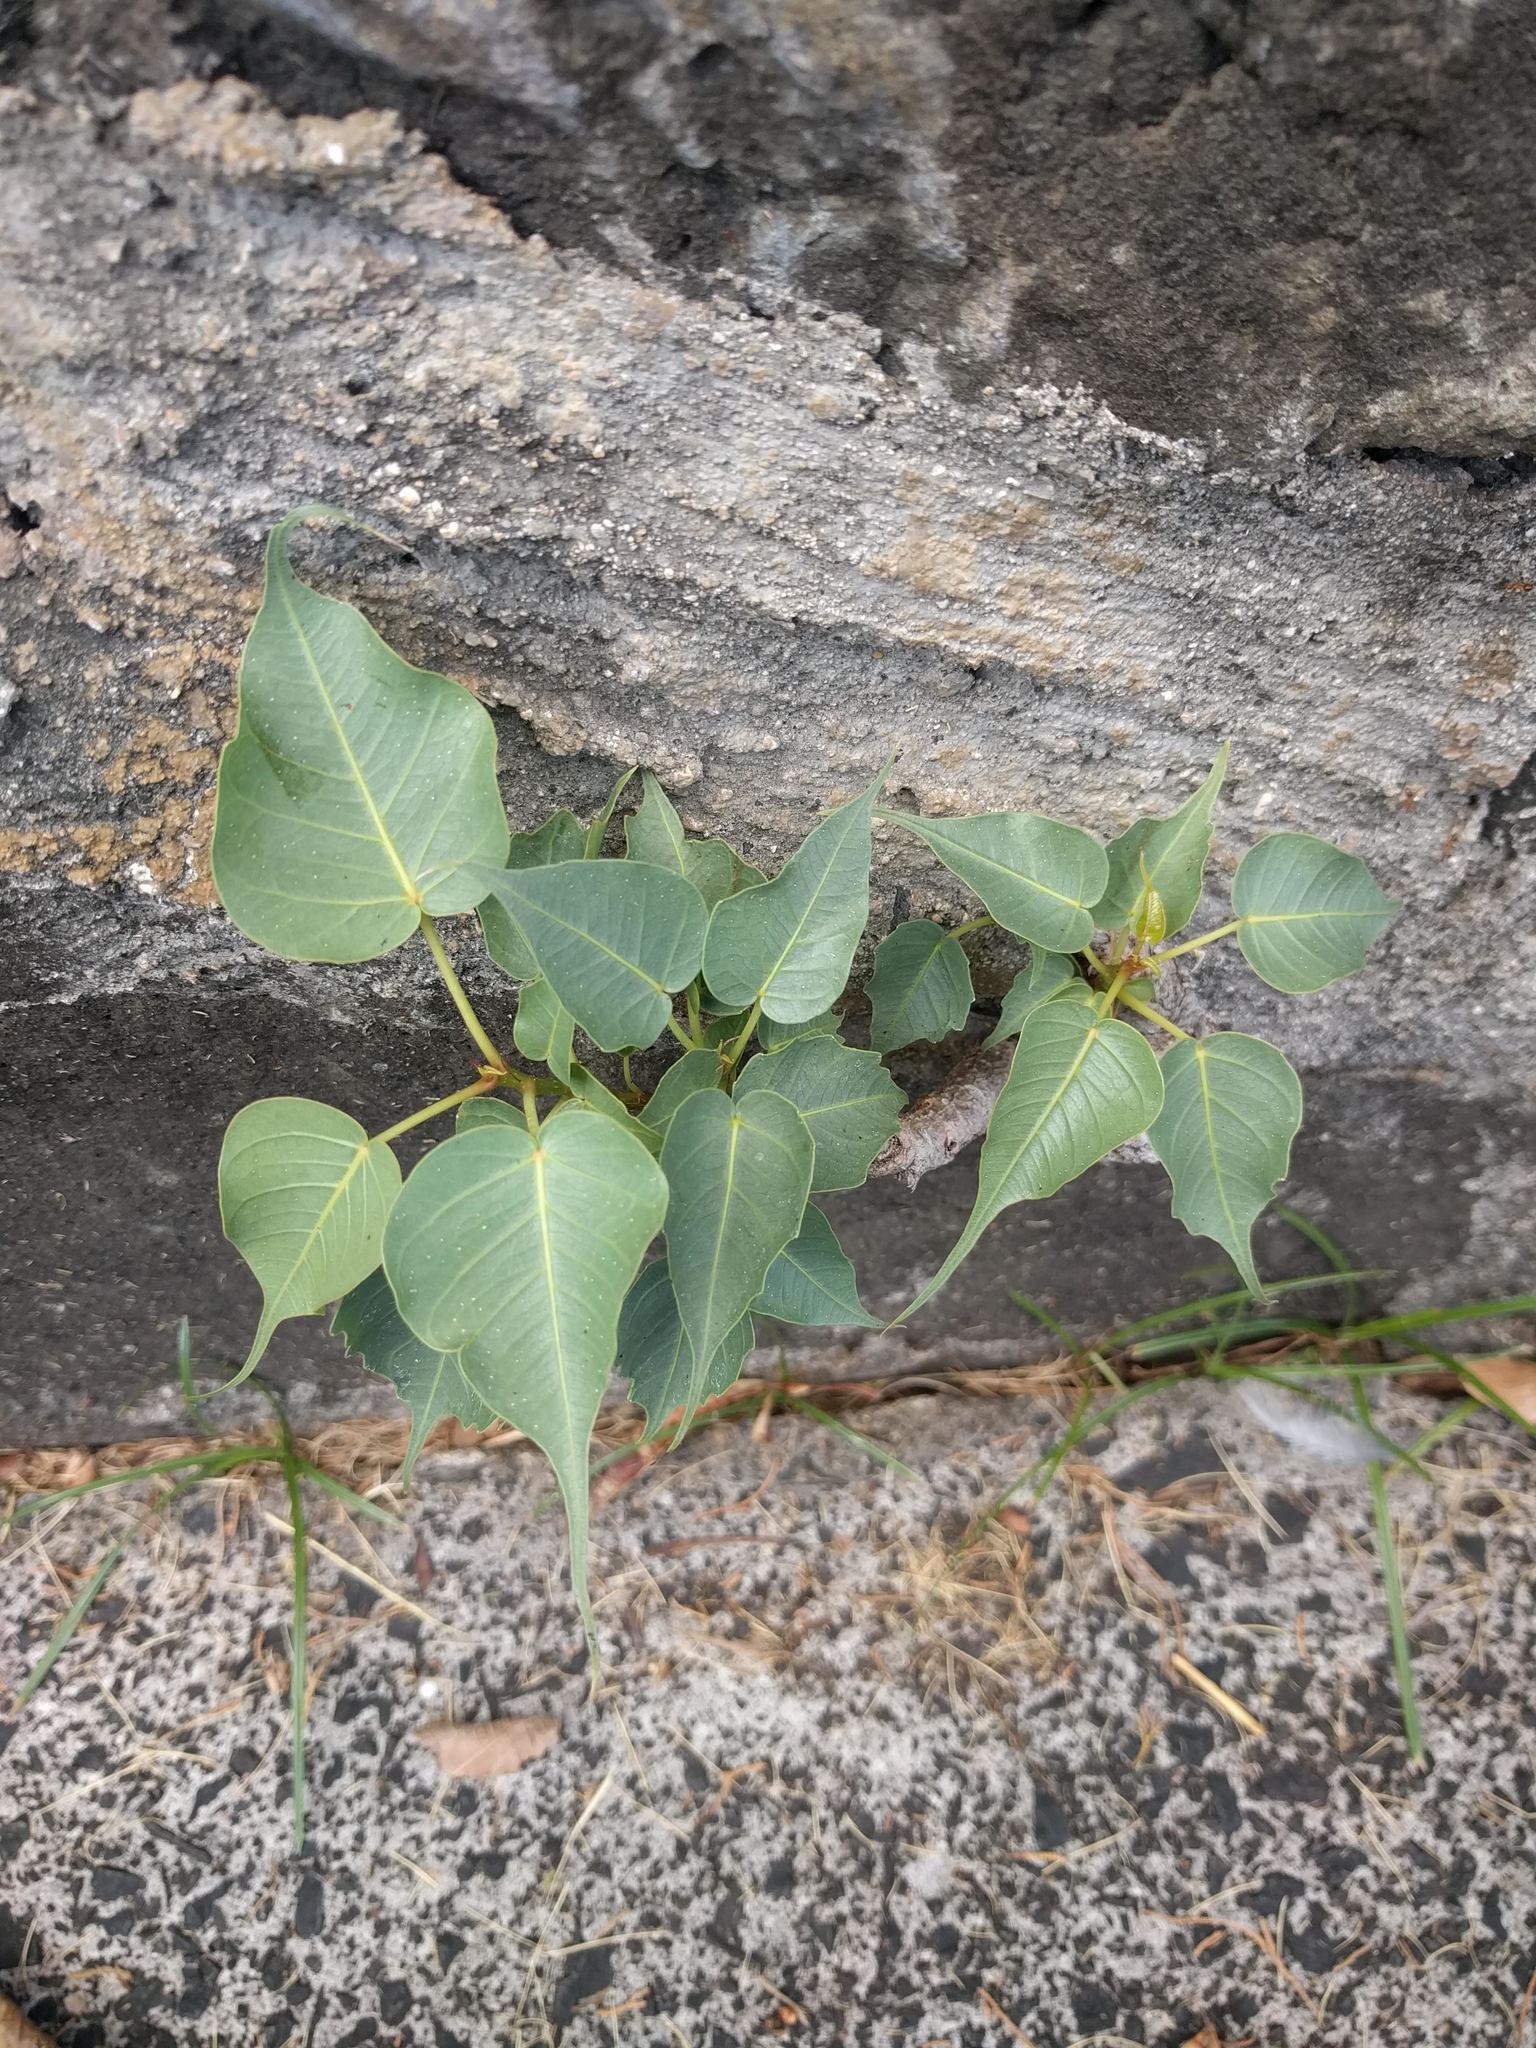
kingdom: Plantae
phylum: Tracheophyta
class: Magnoliopsida
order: Rosales
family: Moraceae
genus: Ficus
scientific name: Ficus religiosa
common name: Bodhi tree
